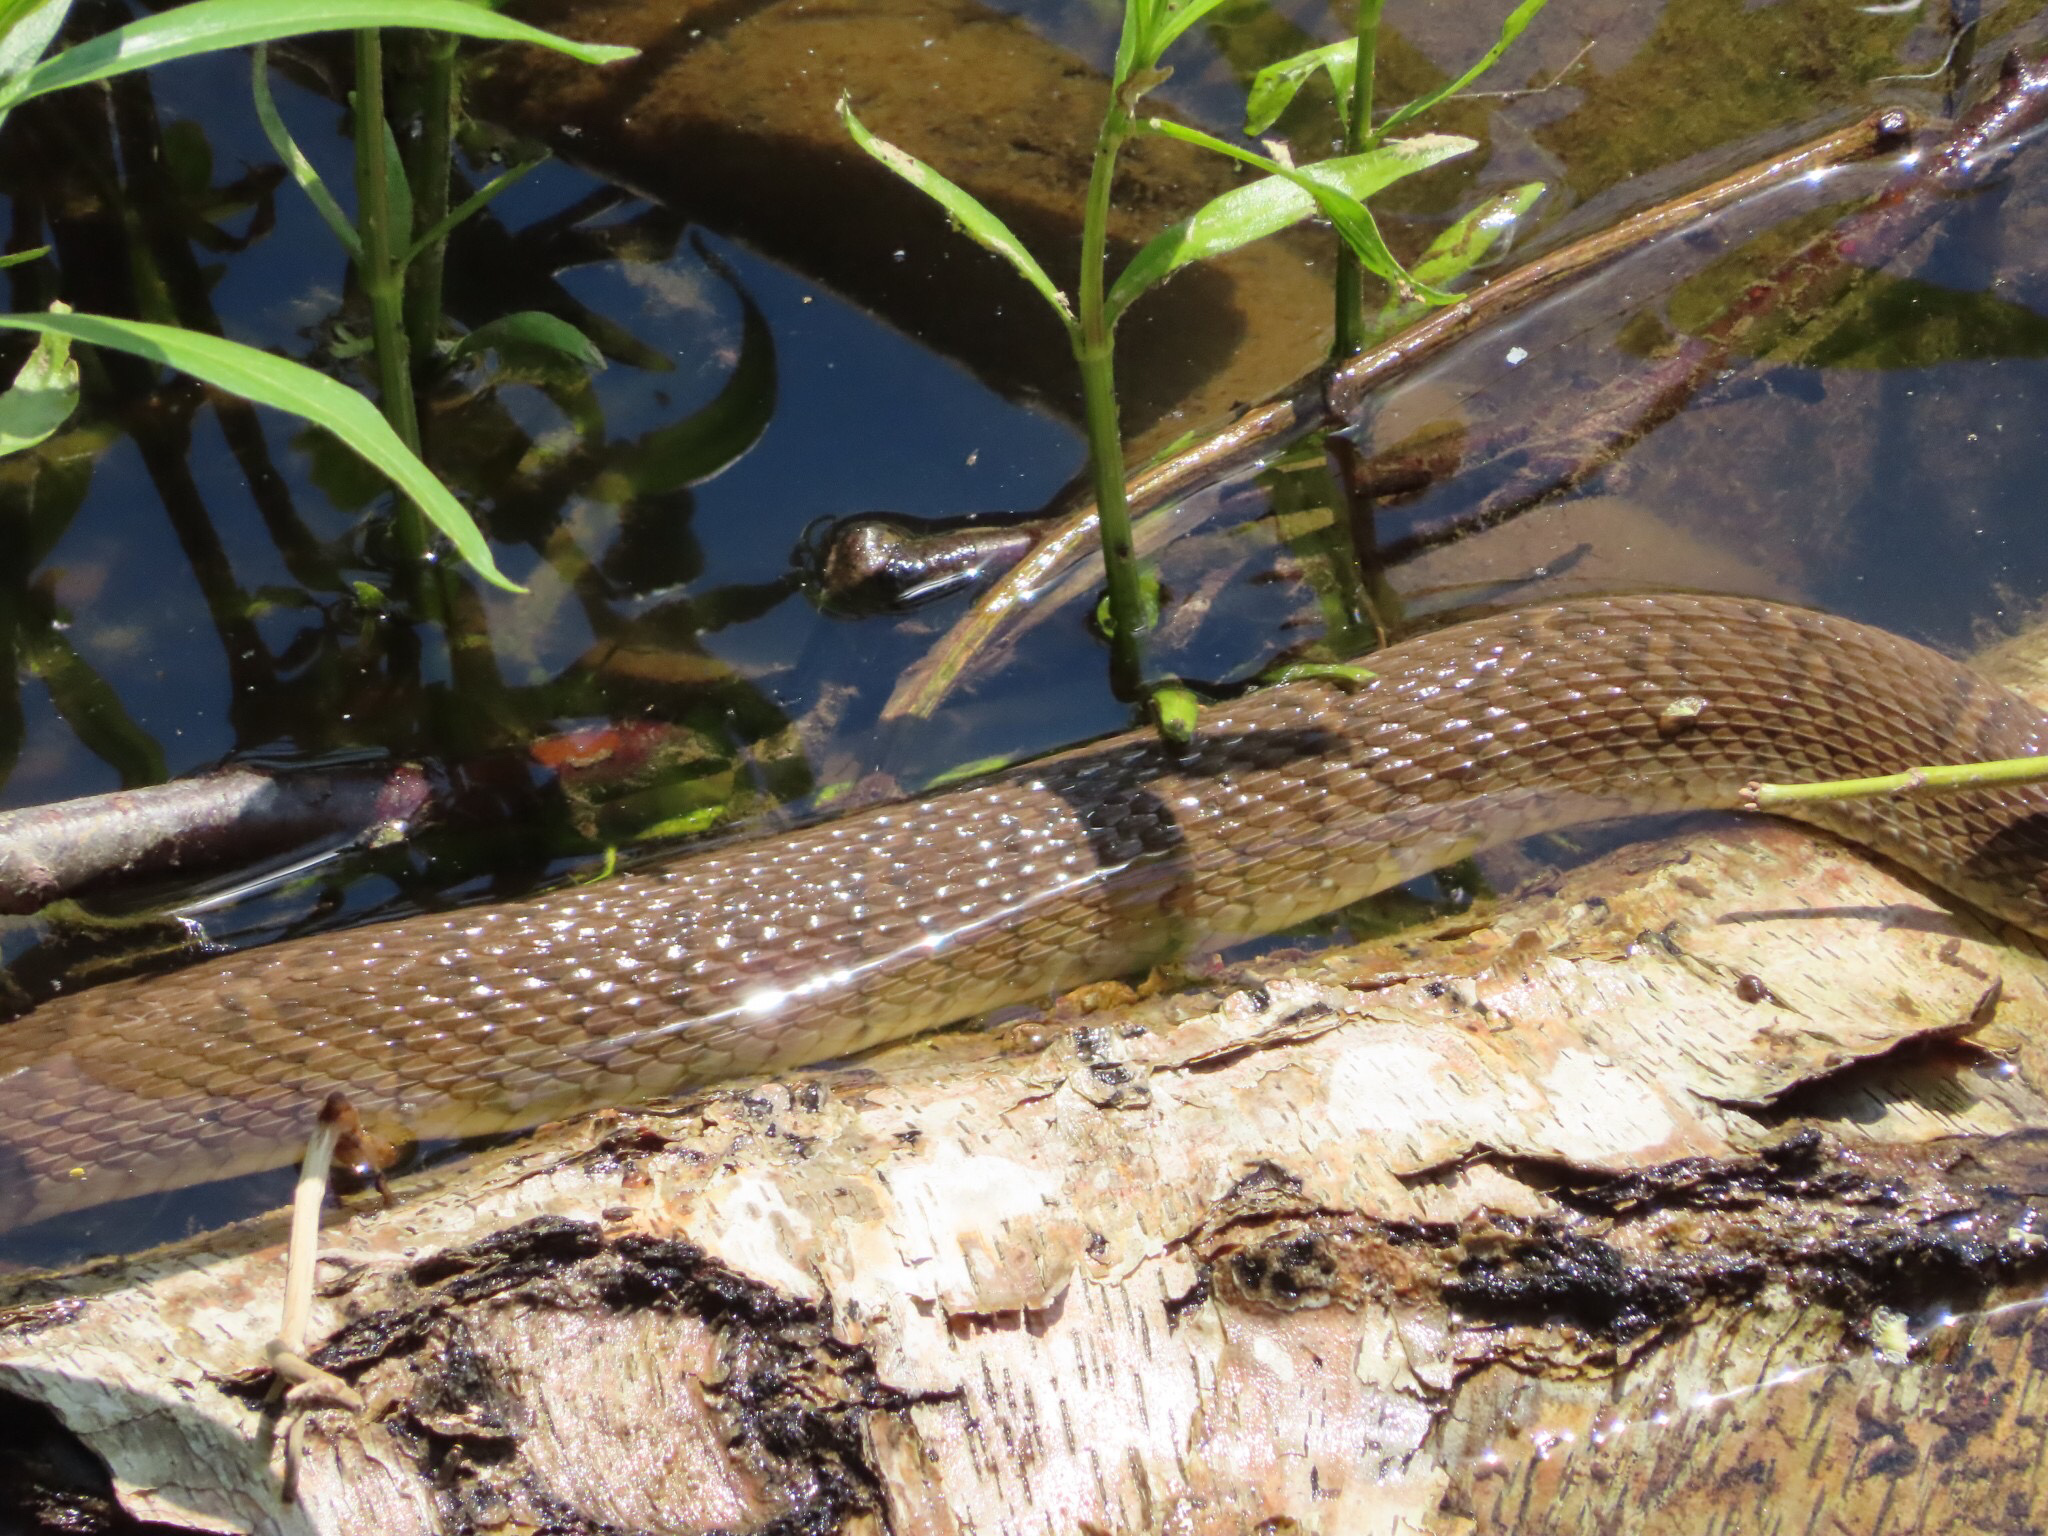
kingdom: Animalia
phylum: Chordata
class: Squamata
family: Colubridae
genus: Nerodia
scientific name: Nerodia sipedon
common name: Northern water snake
